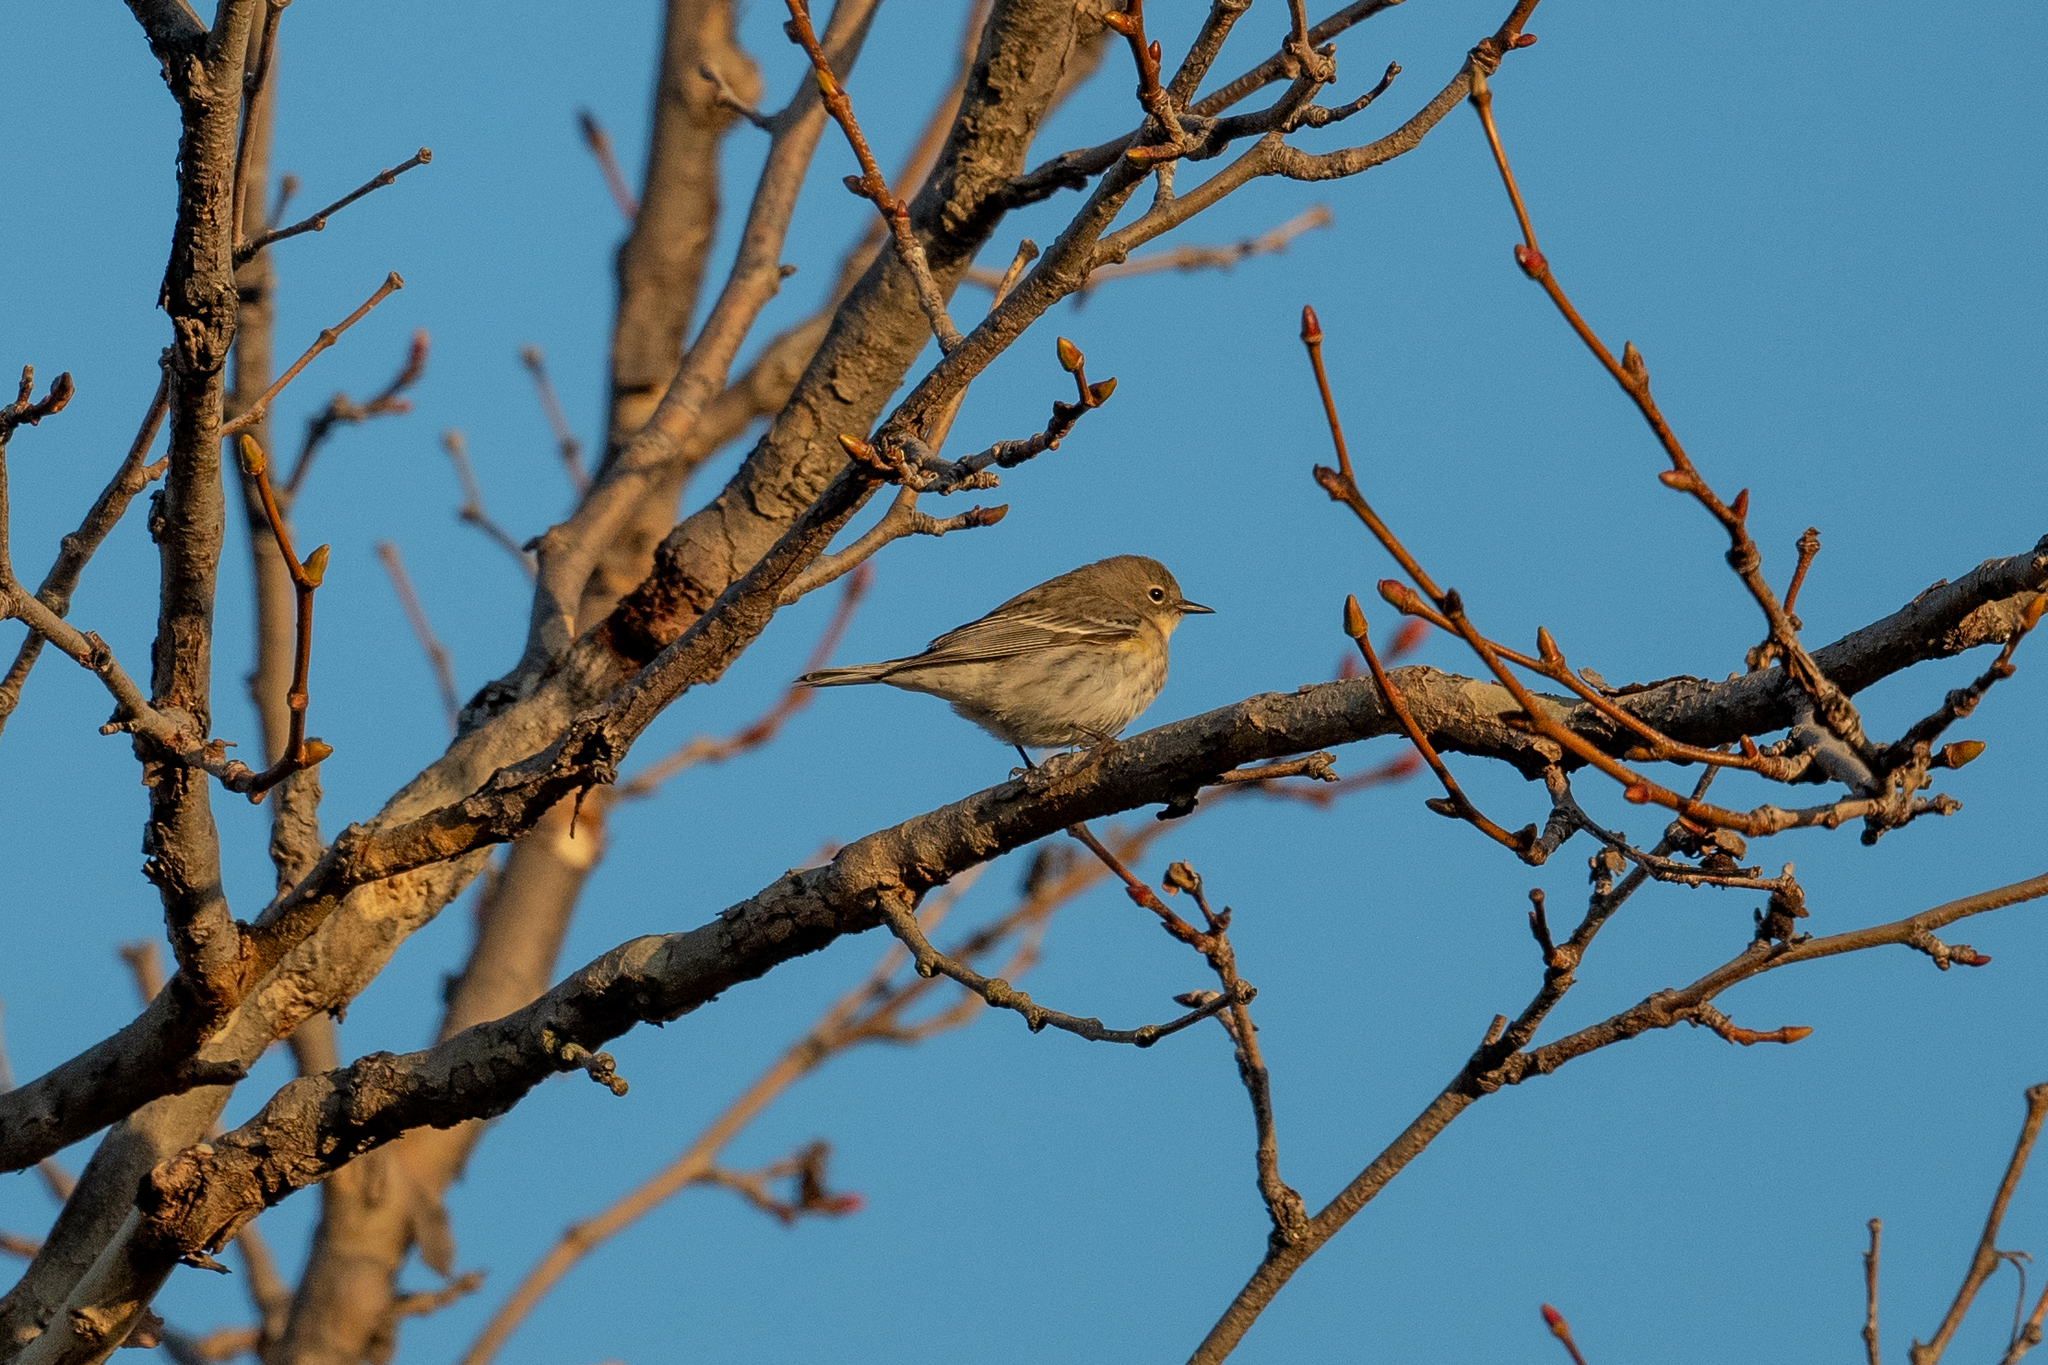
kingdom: Animalia
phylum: Chordata
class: Aves
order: Passeriformes
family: Parulidae
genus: Setophaga
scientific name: Setophaga coronata
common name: Myrtle warbler
